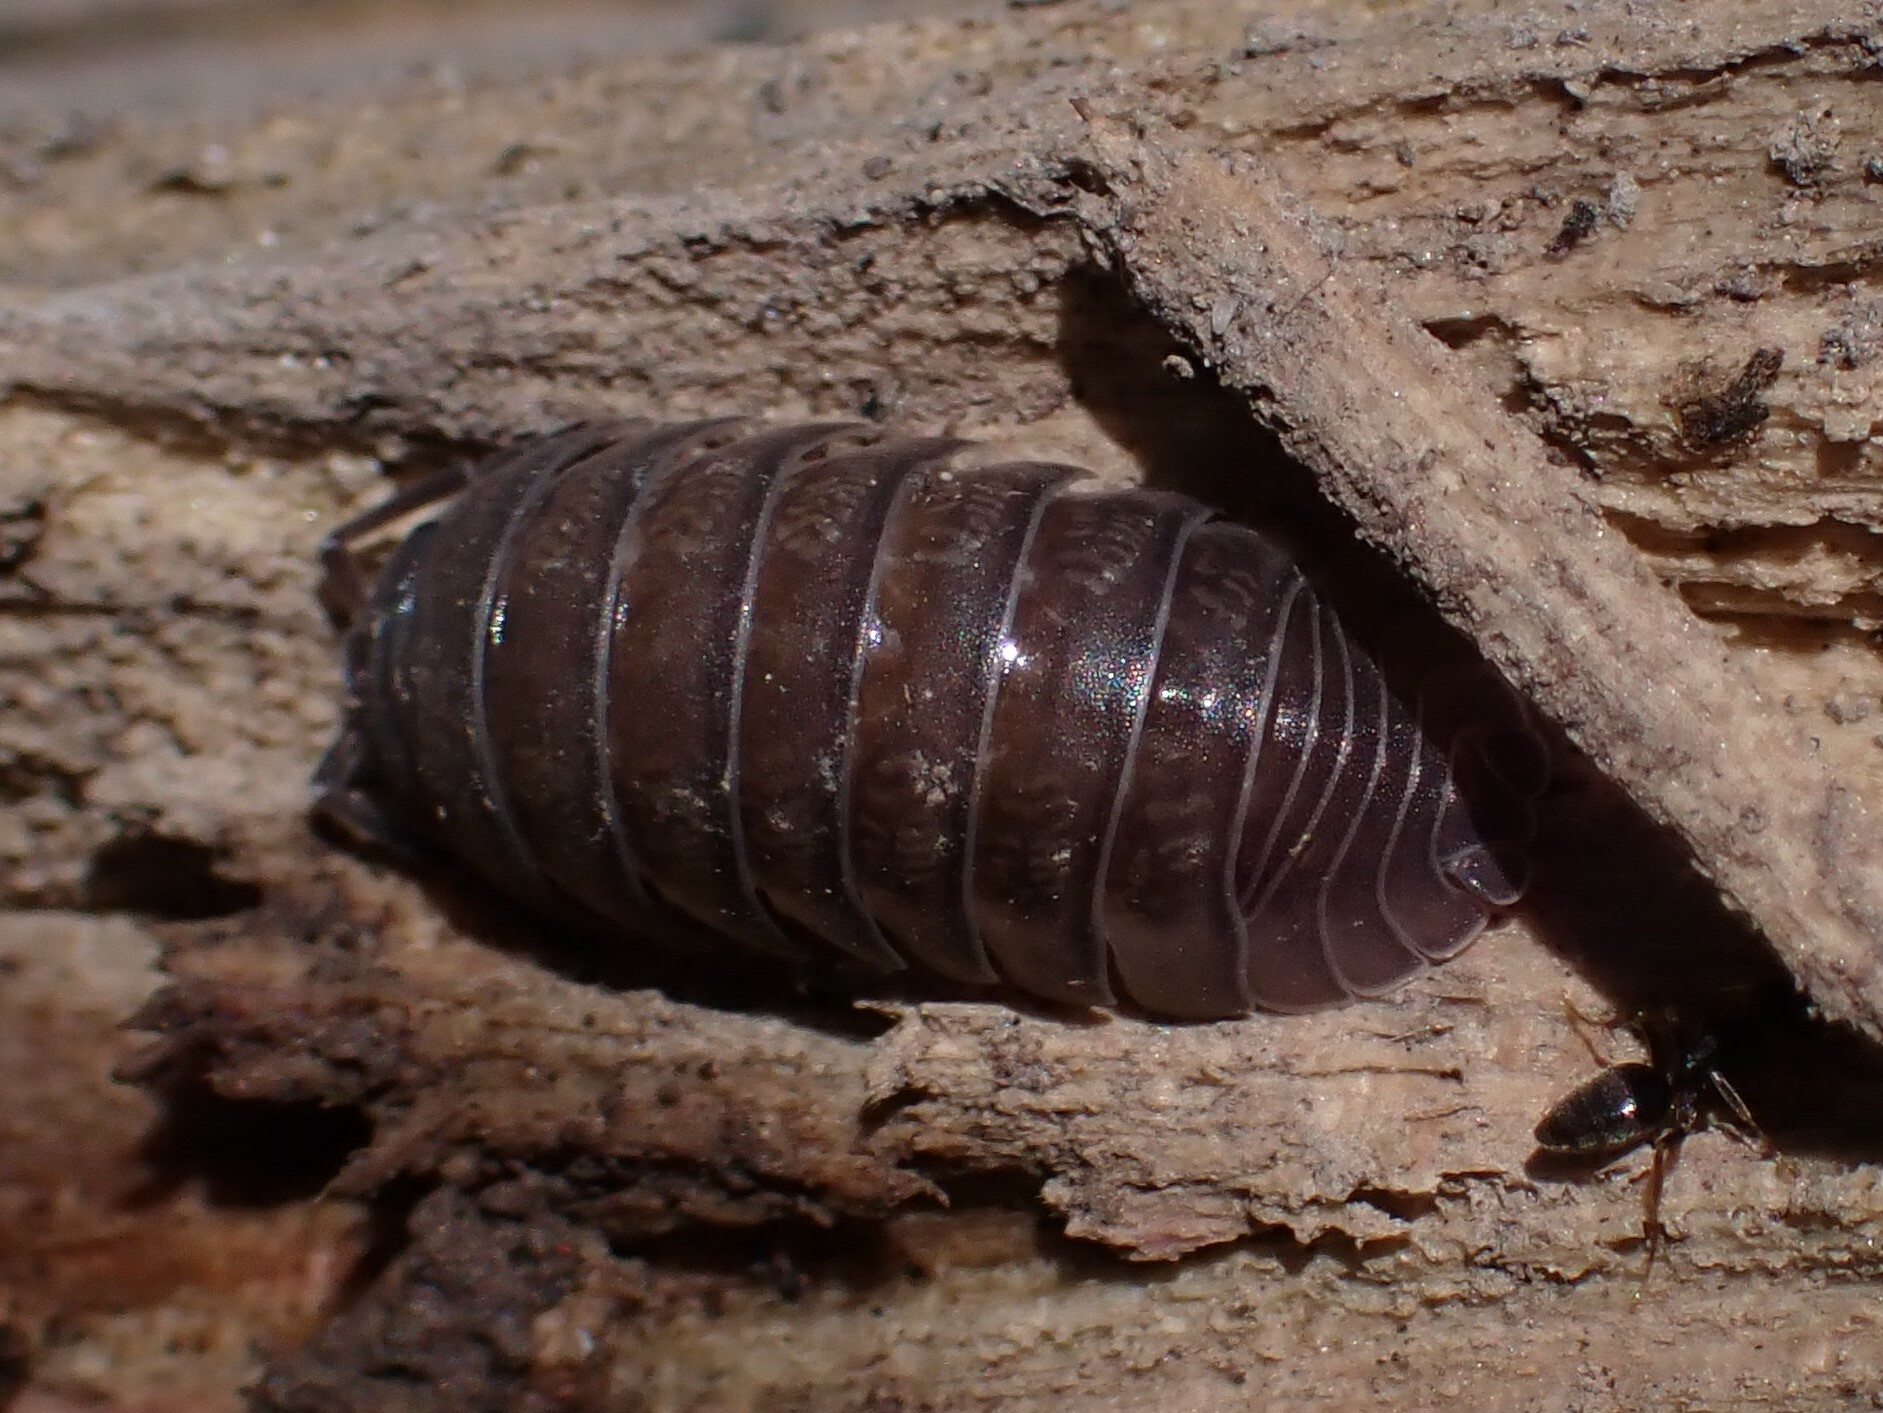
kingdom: Animalia
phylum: Arthropoda
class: Malacostraca
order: Isopoda
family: Armadillidiidae
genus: Armadillidium
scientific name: Armadillidium nasatum
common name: Isopod
